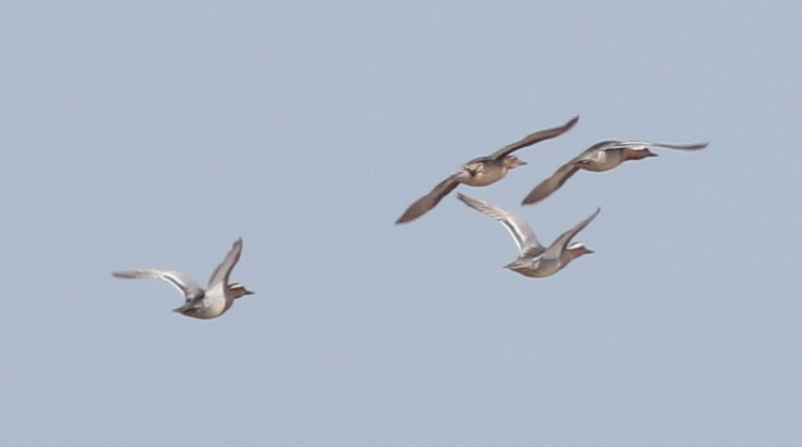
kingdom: Animalia
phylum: Chordata
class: Aves
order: Anseriformes
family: Anatidae
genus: Spatula
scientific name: Spatula querquedula
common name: Garganey
